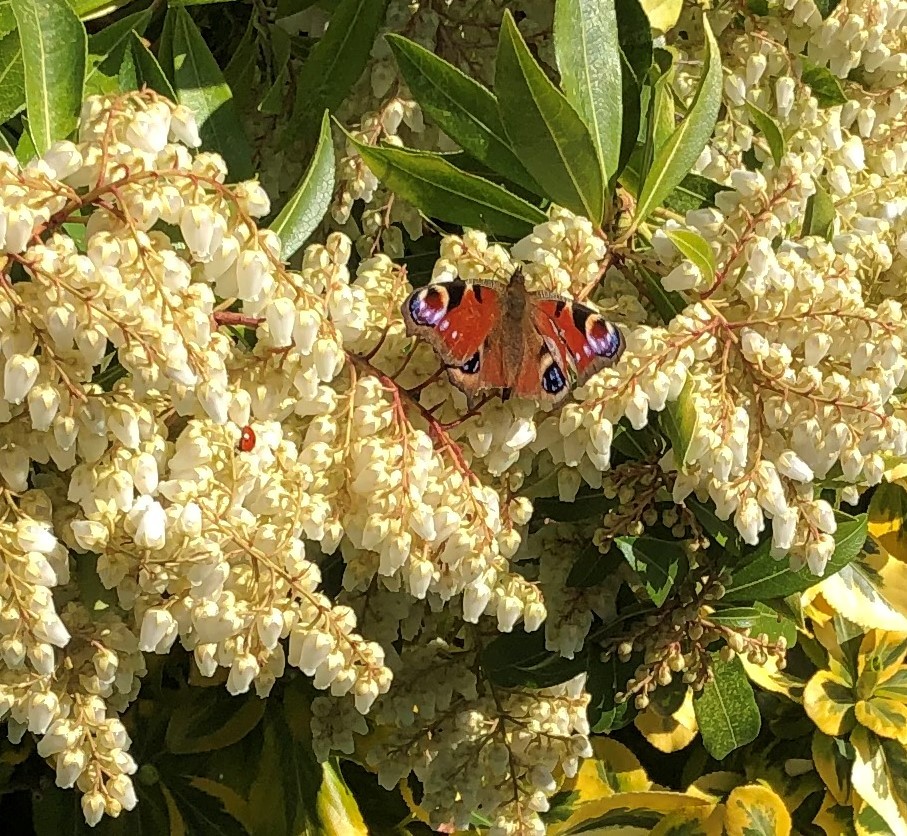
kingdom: Animalia
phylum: Arthropoda
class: Insecta
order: Lepidoptera
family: Nymphalidae
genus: Aglais
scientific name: Aglais io
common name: Peacock
